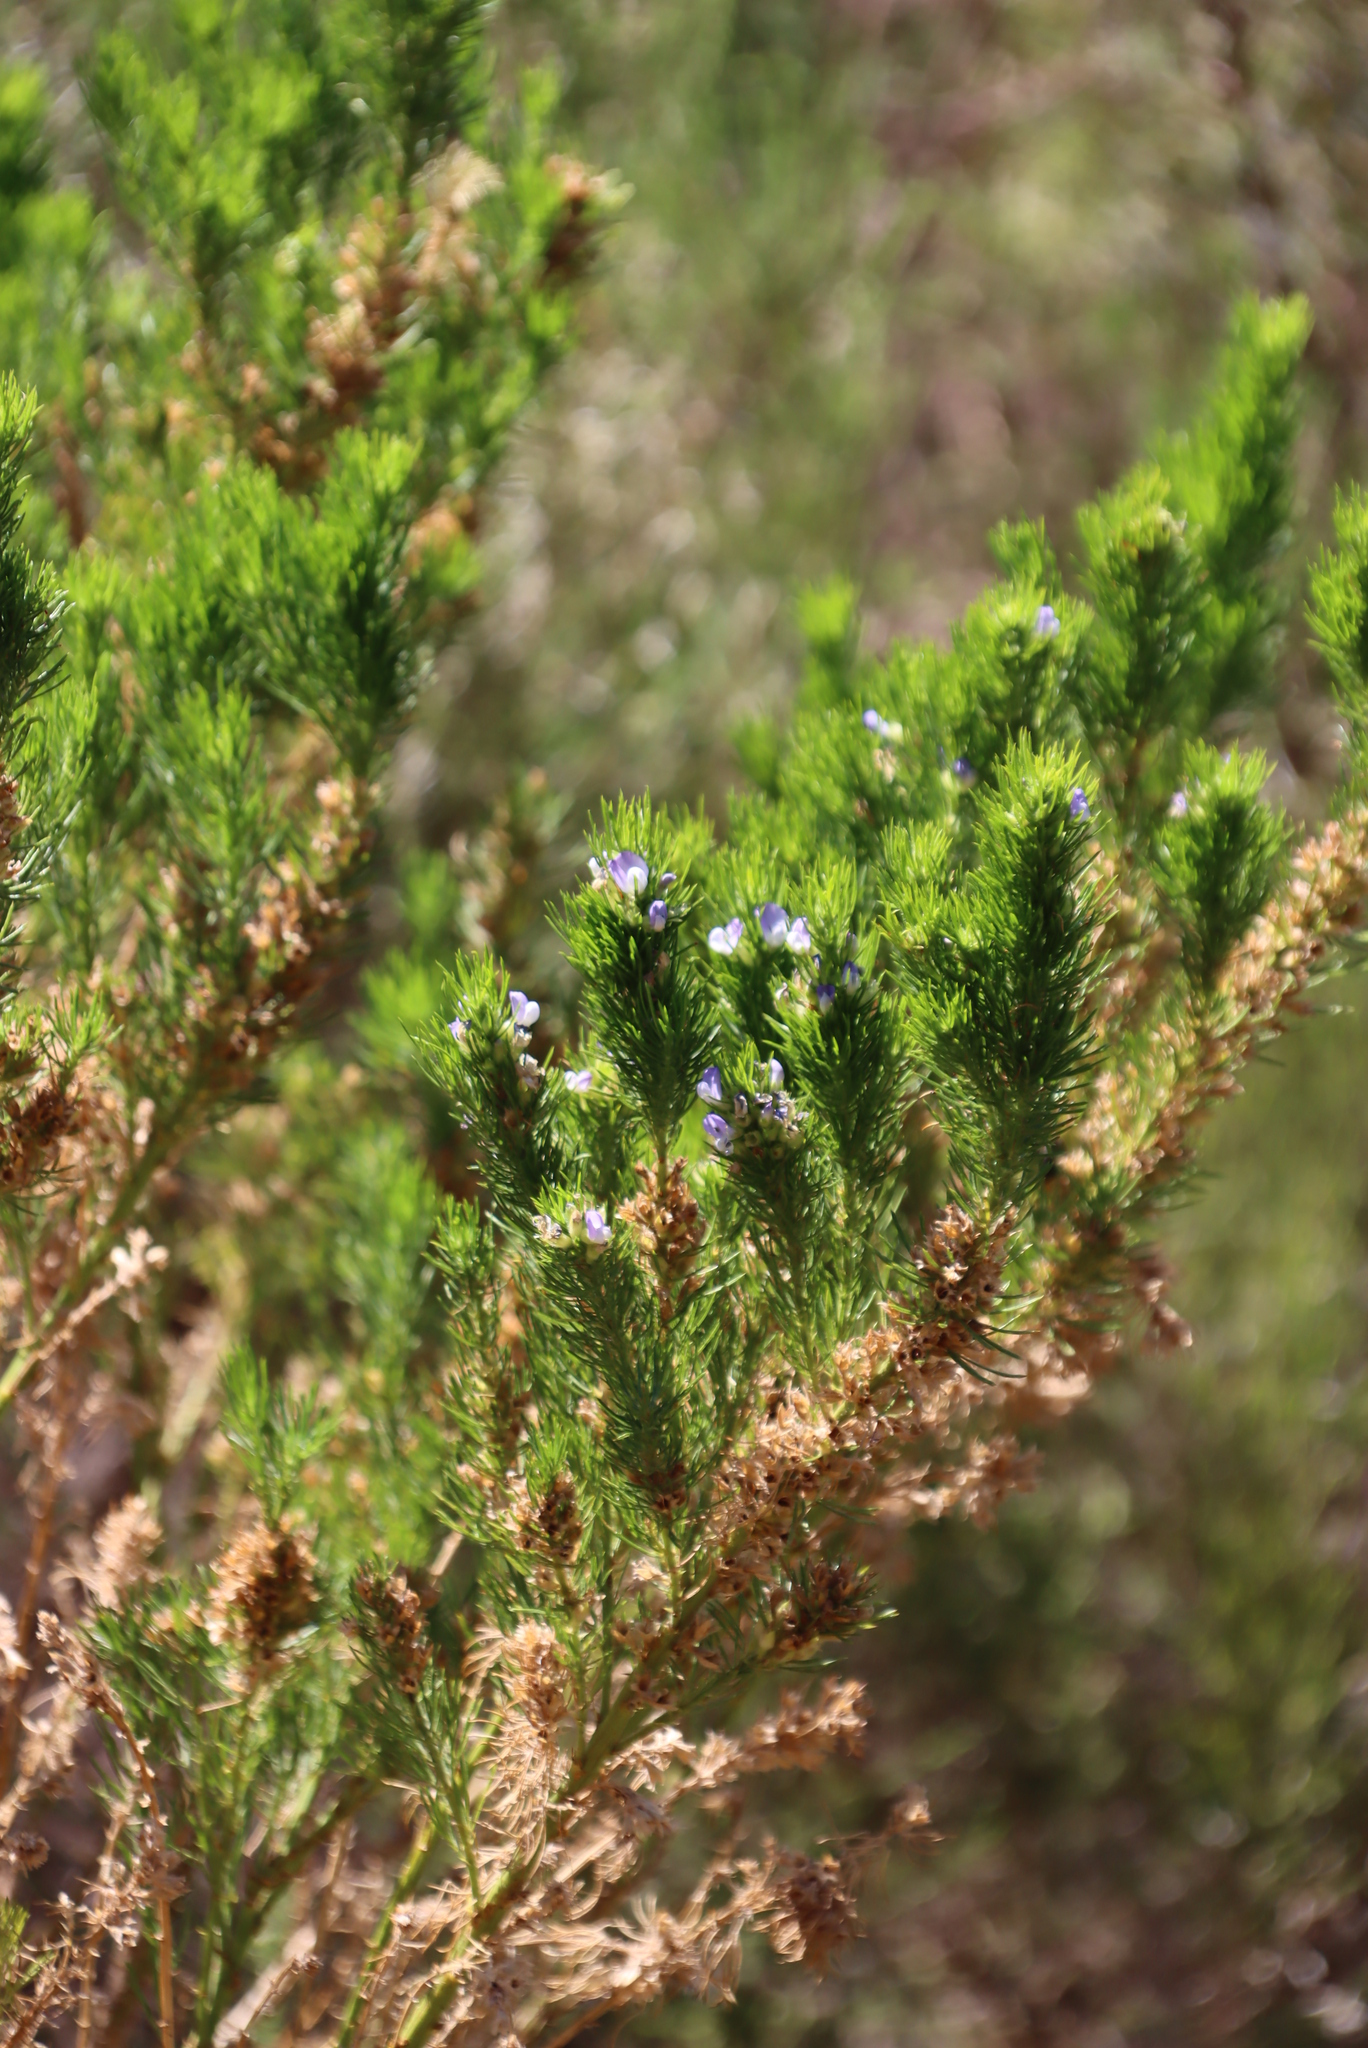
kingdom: Plantae
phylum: Tracheophyta
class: Magnoliopsida
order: Fabales
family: Fabaceae
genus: Psoralea
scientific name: Psoralea pinnata
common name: African scurfpea
